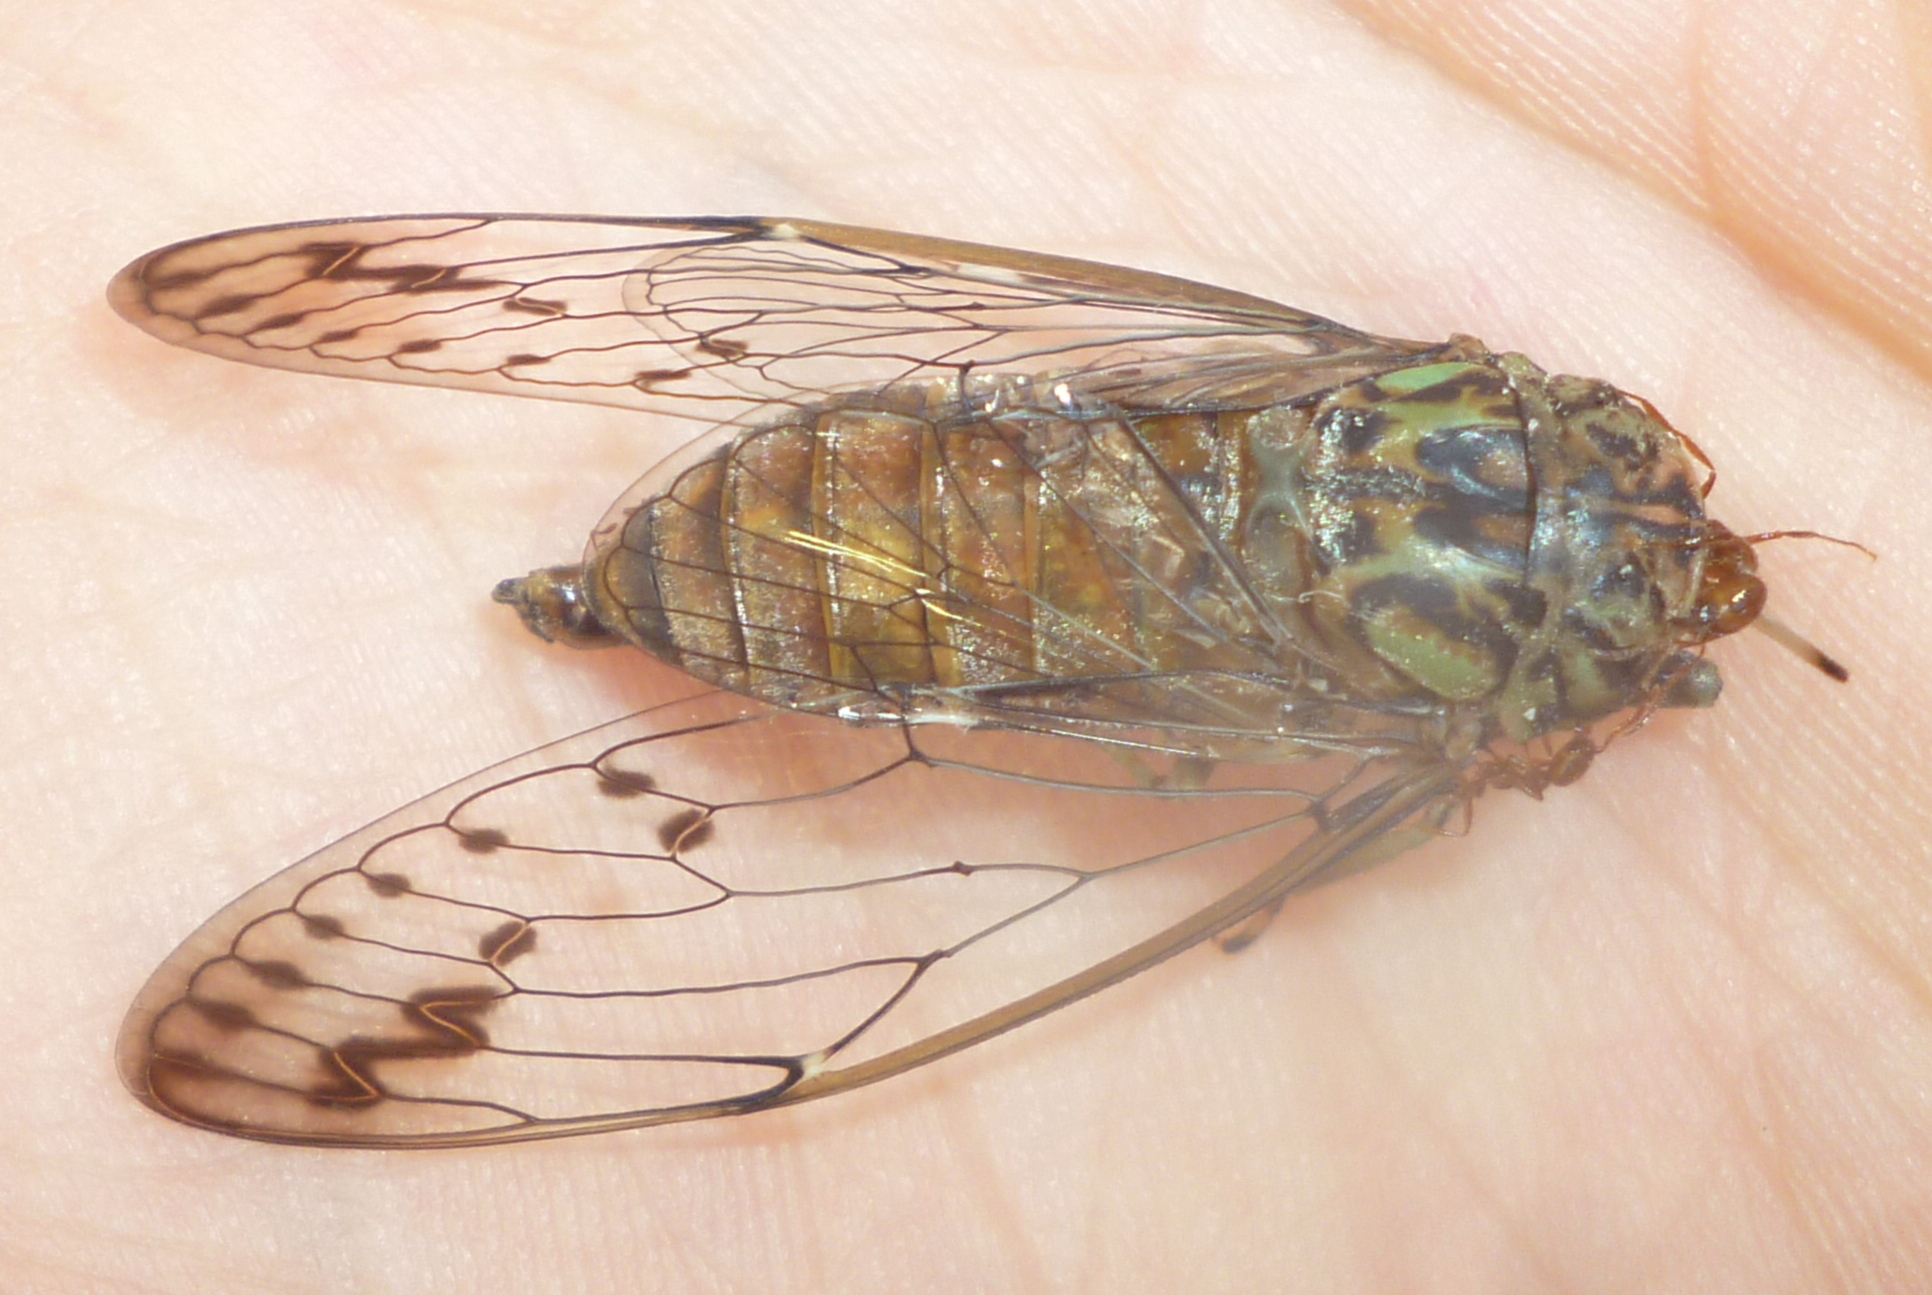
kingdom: Animalia
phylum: Arthropoda
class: Insecta
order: Hemiptera
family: Cicadidae
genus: Neocicada
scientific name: Neocicada hieroglyphica
